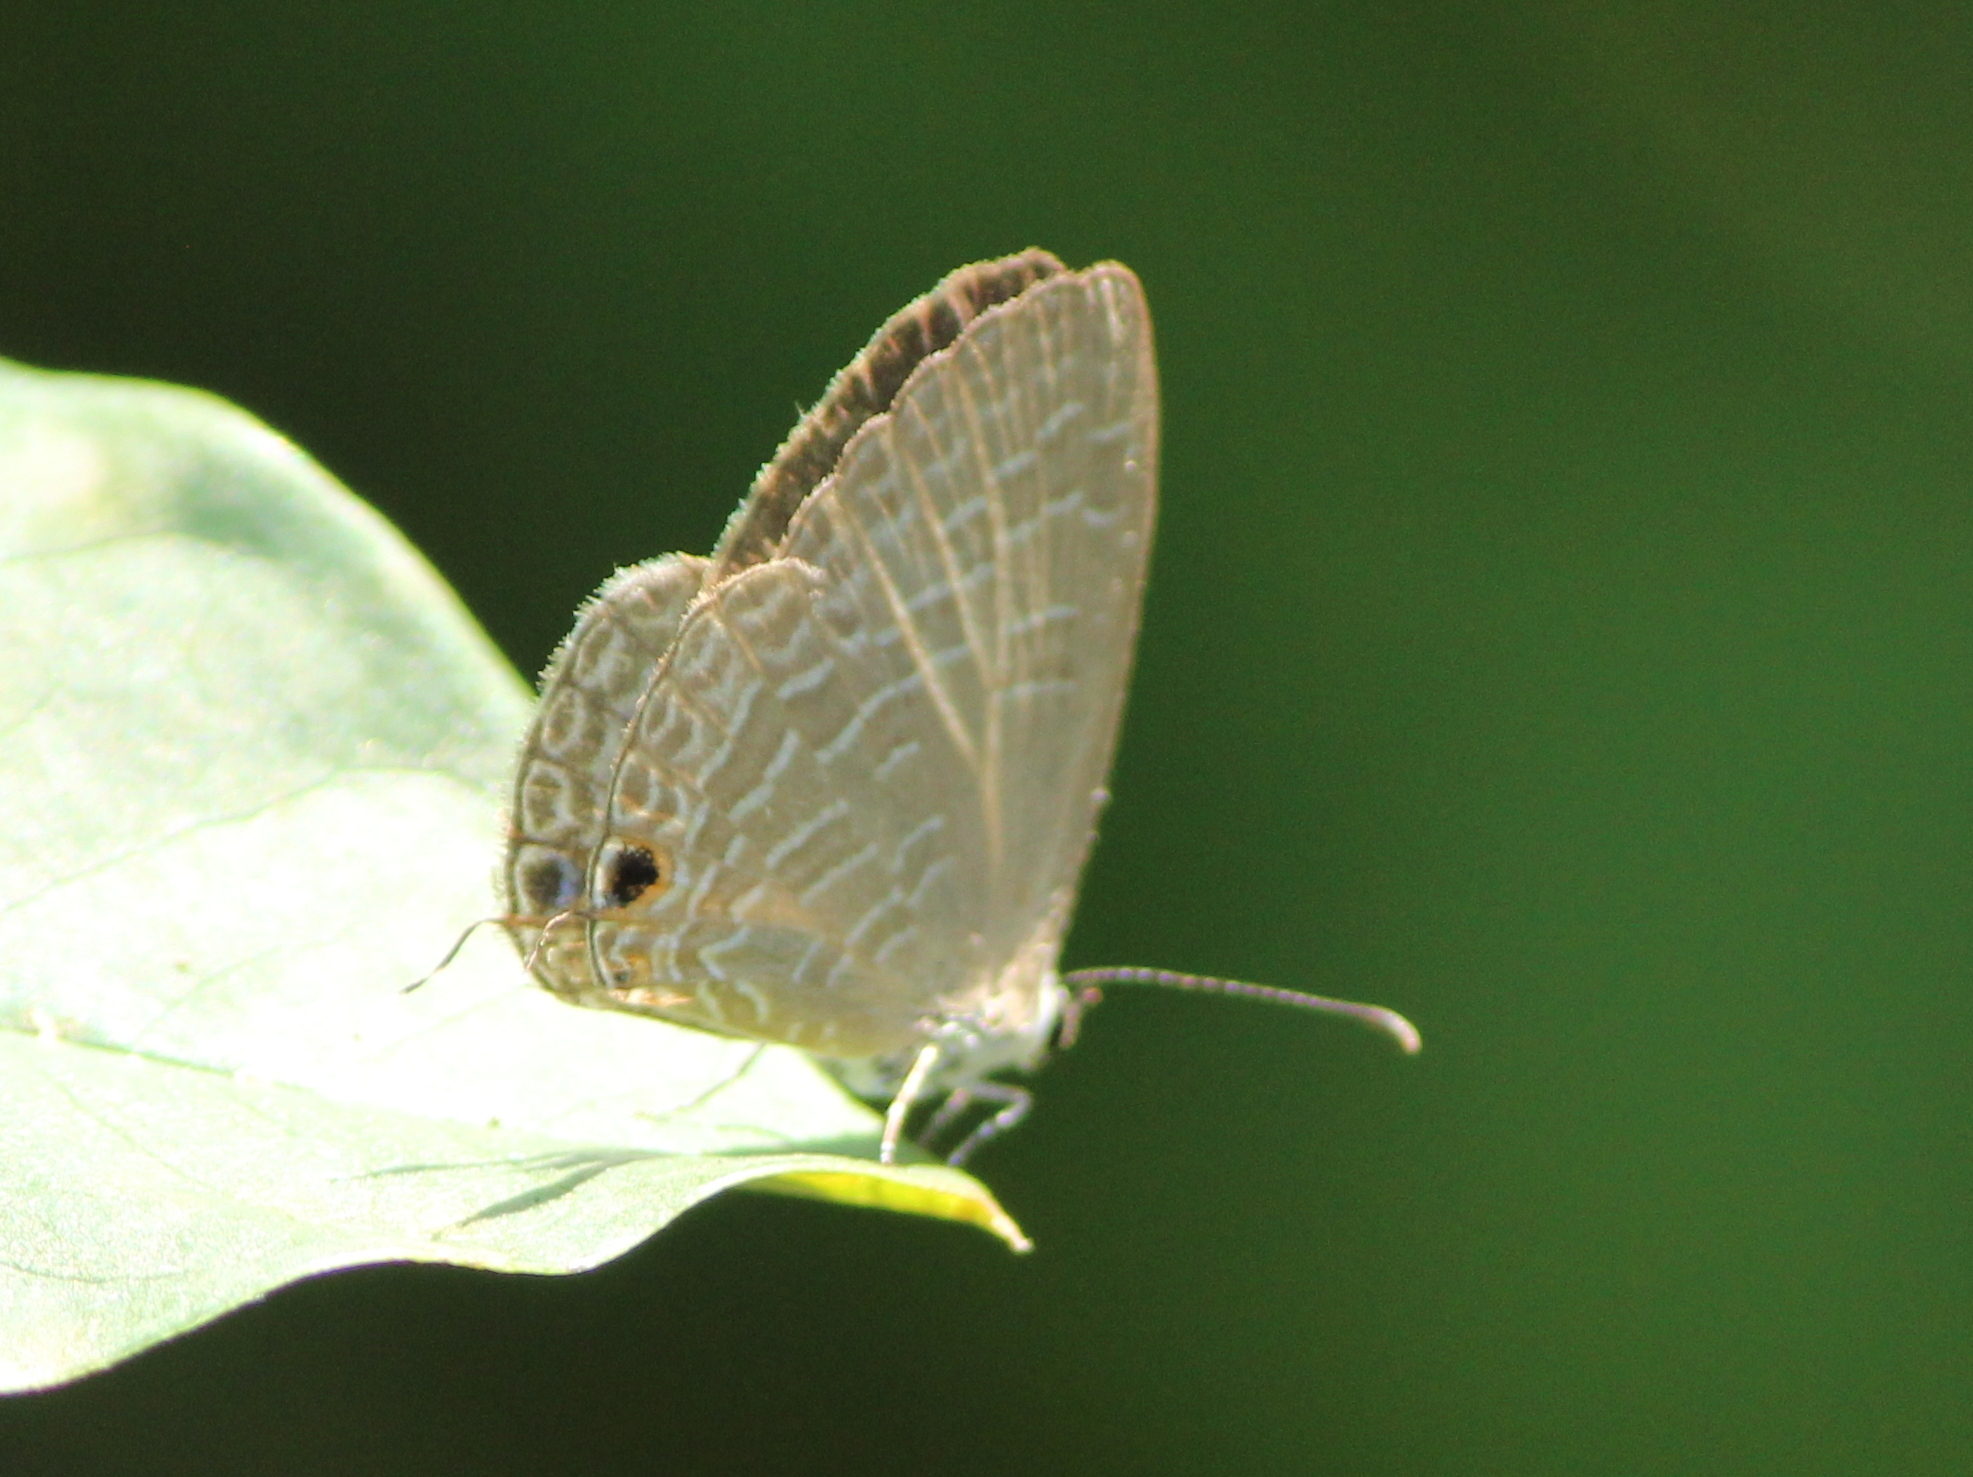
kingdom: Animalia
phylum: Arthropoda
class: Insecta
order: Lepidoptera
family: Lycaenidae
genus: Jamides
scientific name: Jamides bochus
